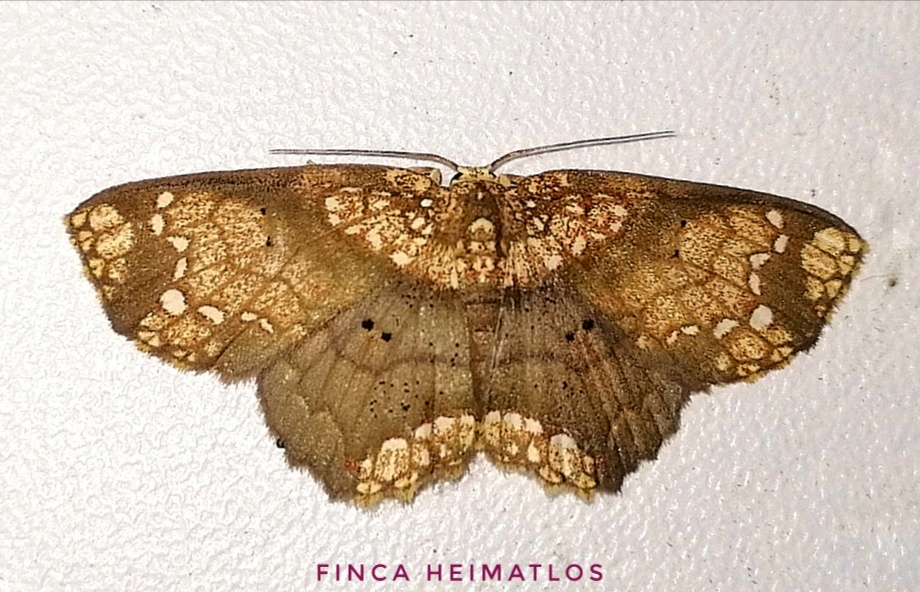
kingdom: Animalia
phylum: Arthropoda
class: Insecta
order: Lepidoptera
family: Geometridae
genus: Semaeopus
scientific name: Semaeopus hypoderis
